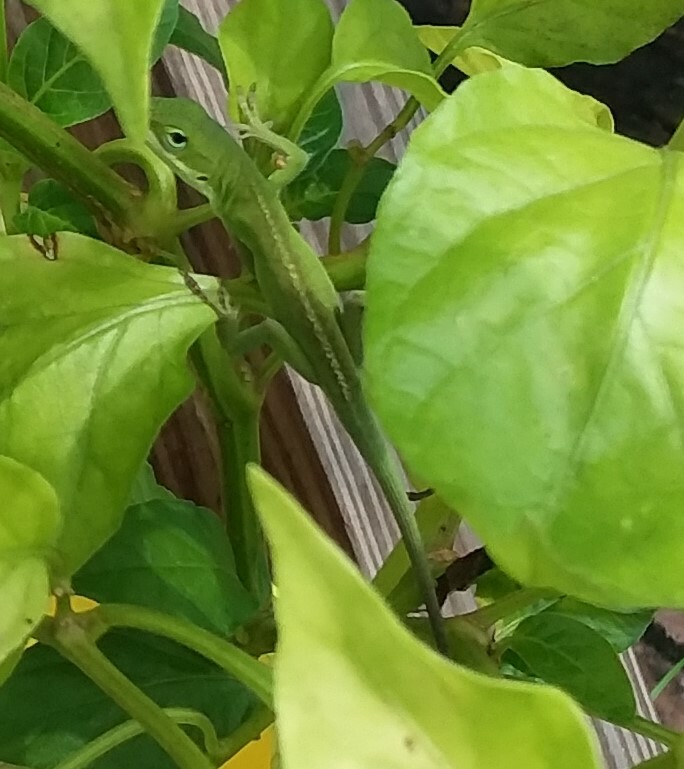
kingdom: Animalia
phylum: Chordata
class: Squamata
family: Dactyloidae
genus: Anolis
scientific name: Anolis carolinensis
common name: Green anole
